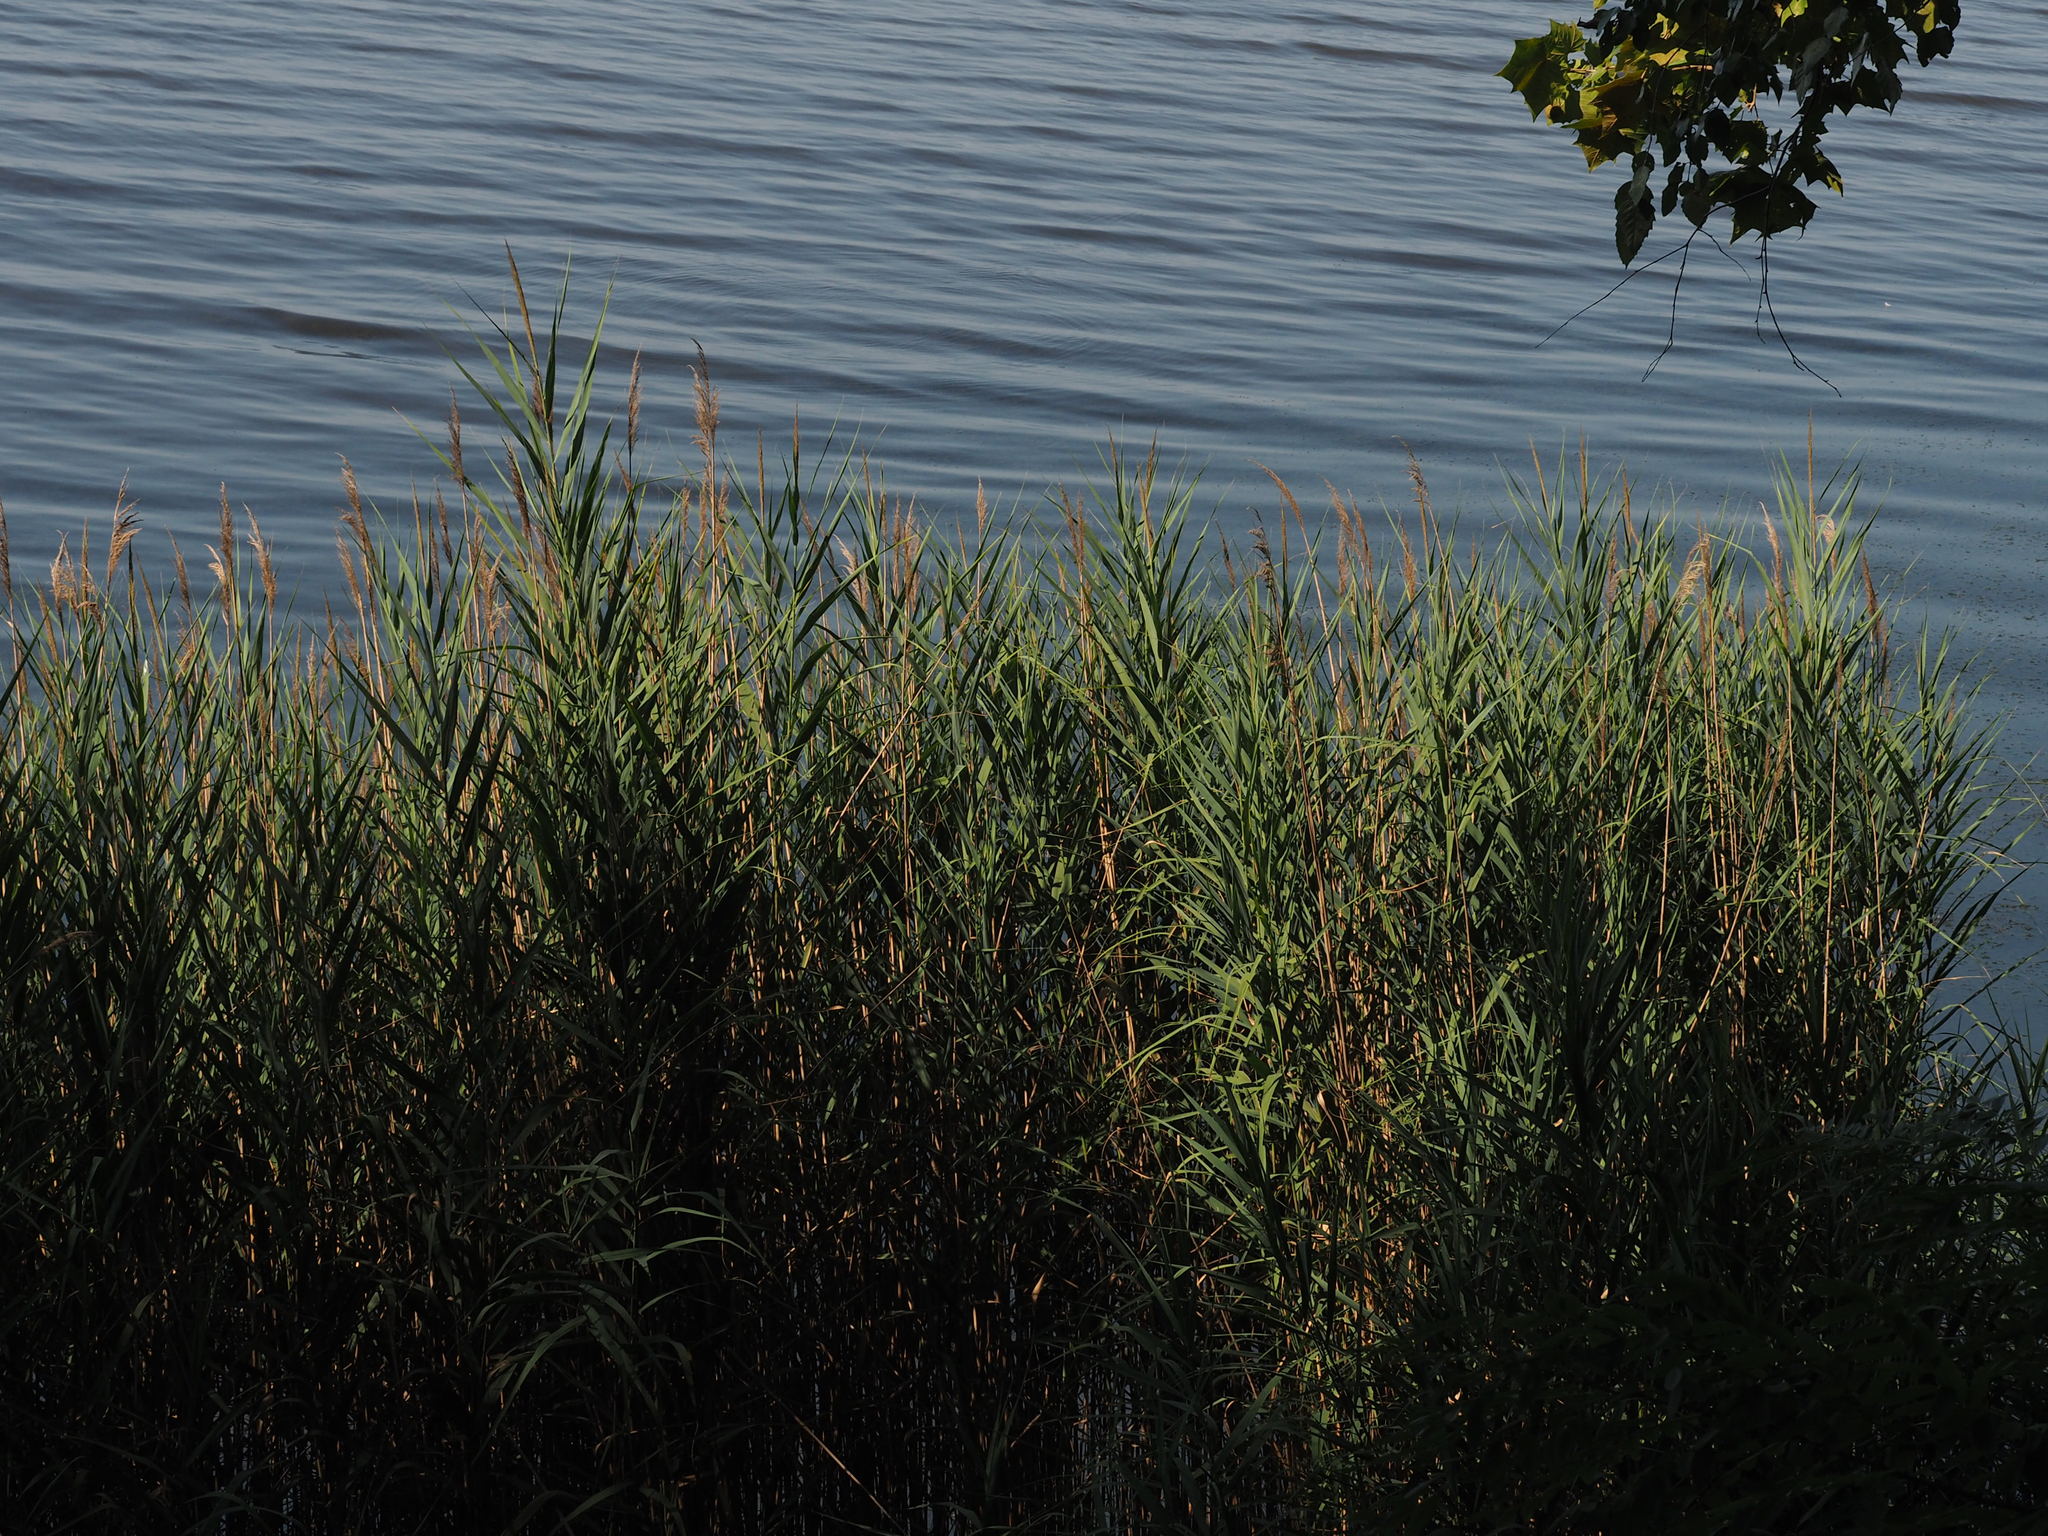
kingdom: Plantae
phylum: Tracheophyta
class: Liliopsida
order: Poales
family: Poaceae
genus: Phragmites
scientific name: Phragmites australis
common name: Common reed
